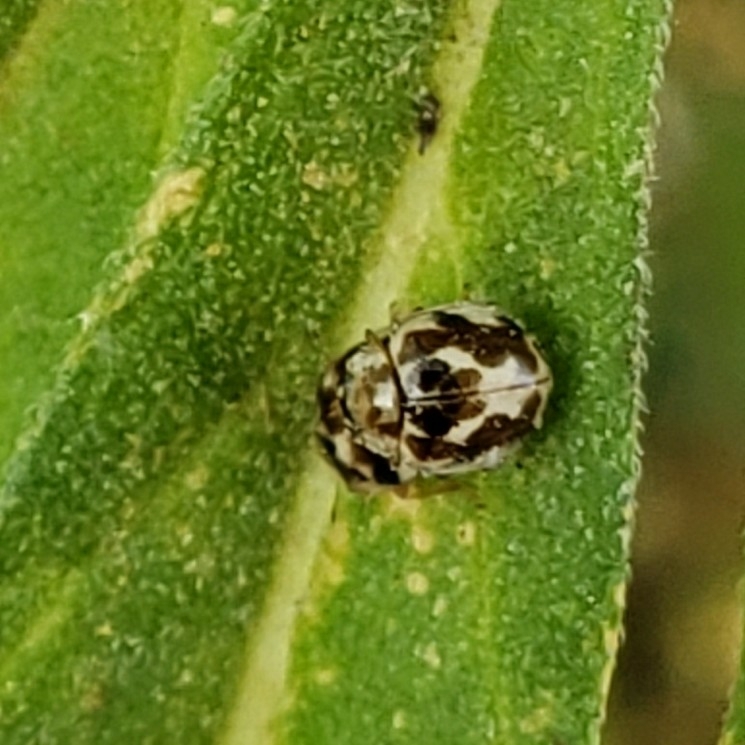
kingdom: Animalia
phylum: Arthropoda
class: Insecta
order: Coleoptera
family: Coccinellidae
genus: Psyllobora
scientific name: Psyllobora vigintimaculata
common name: Ladybird beetle
